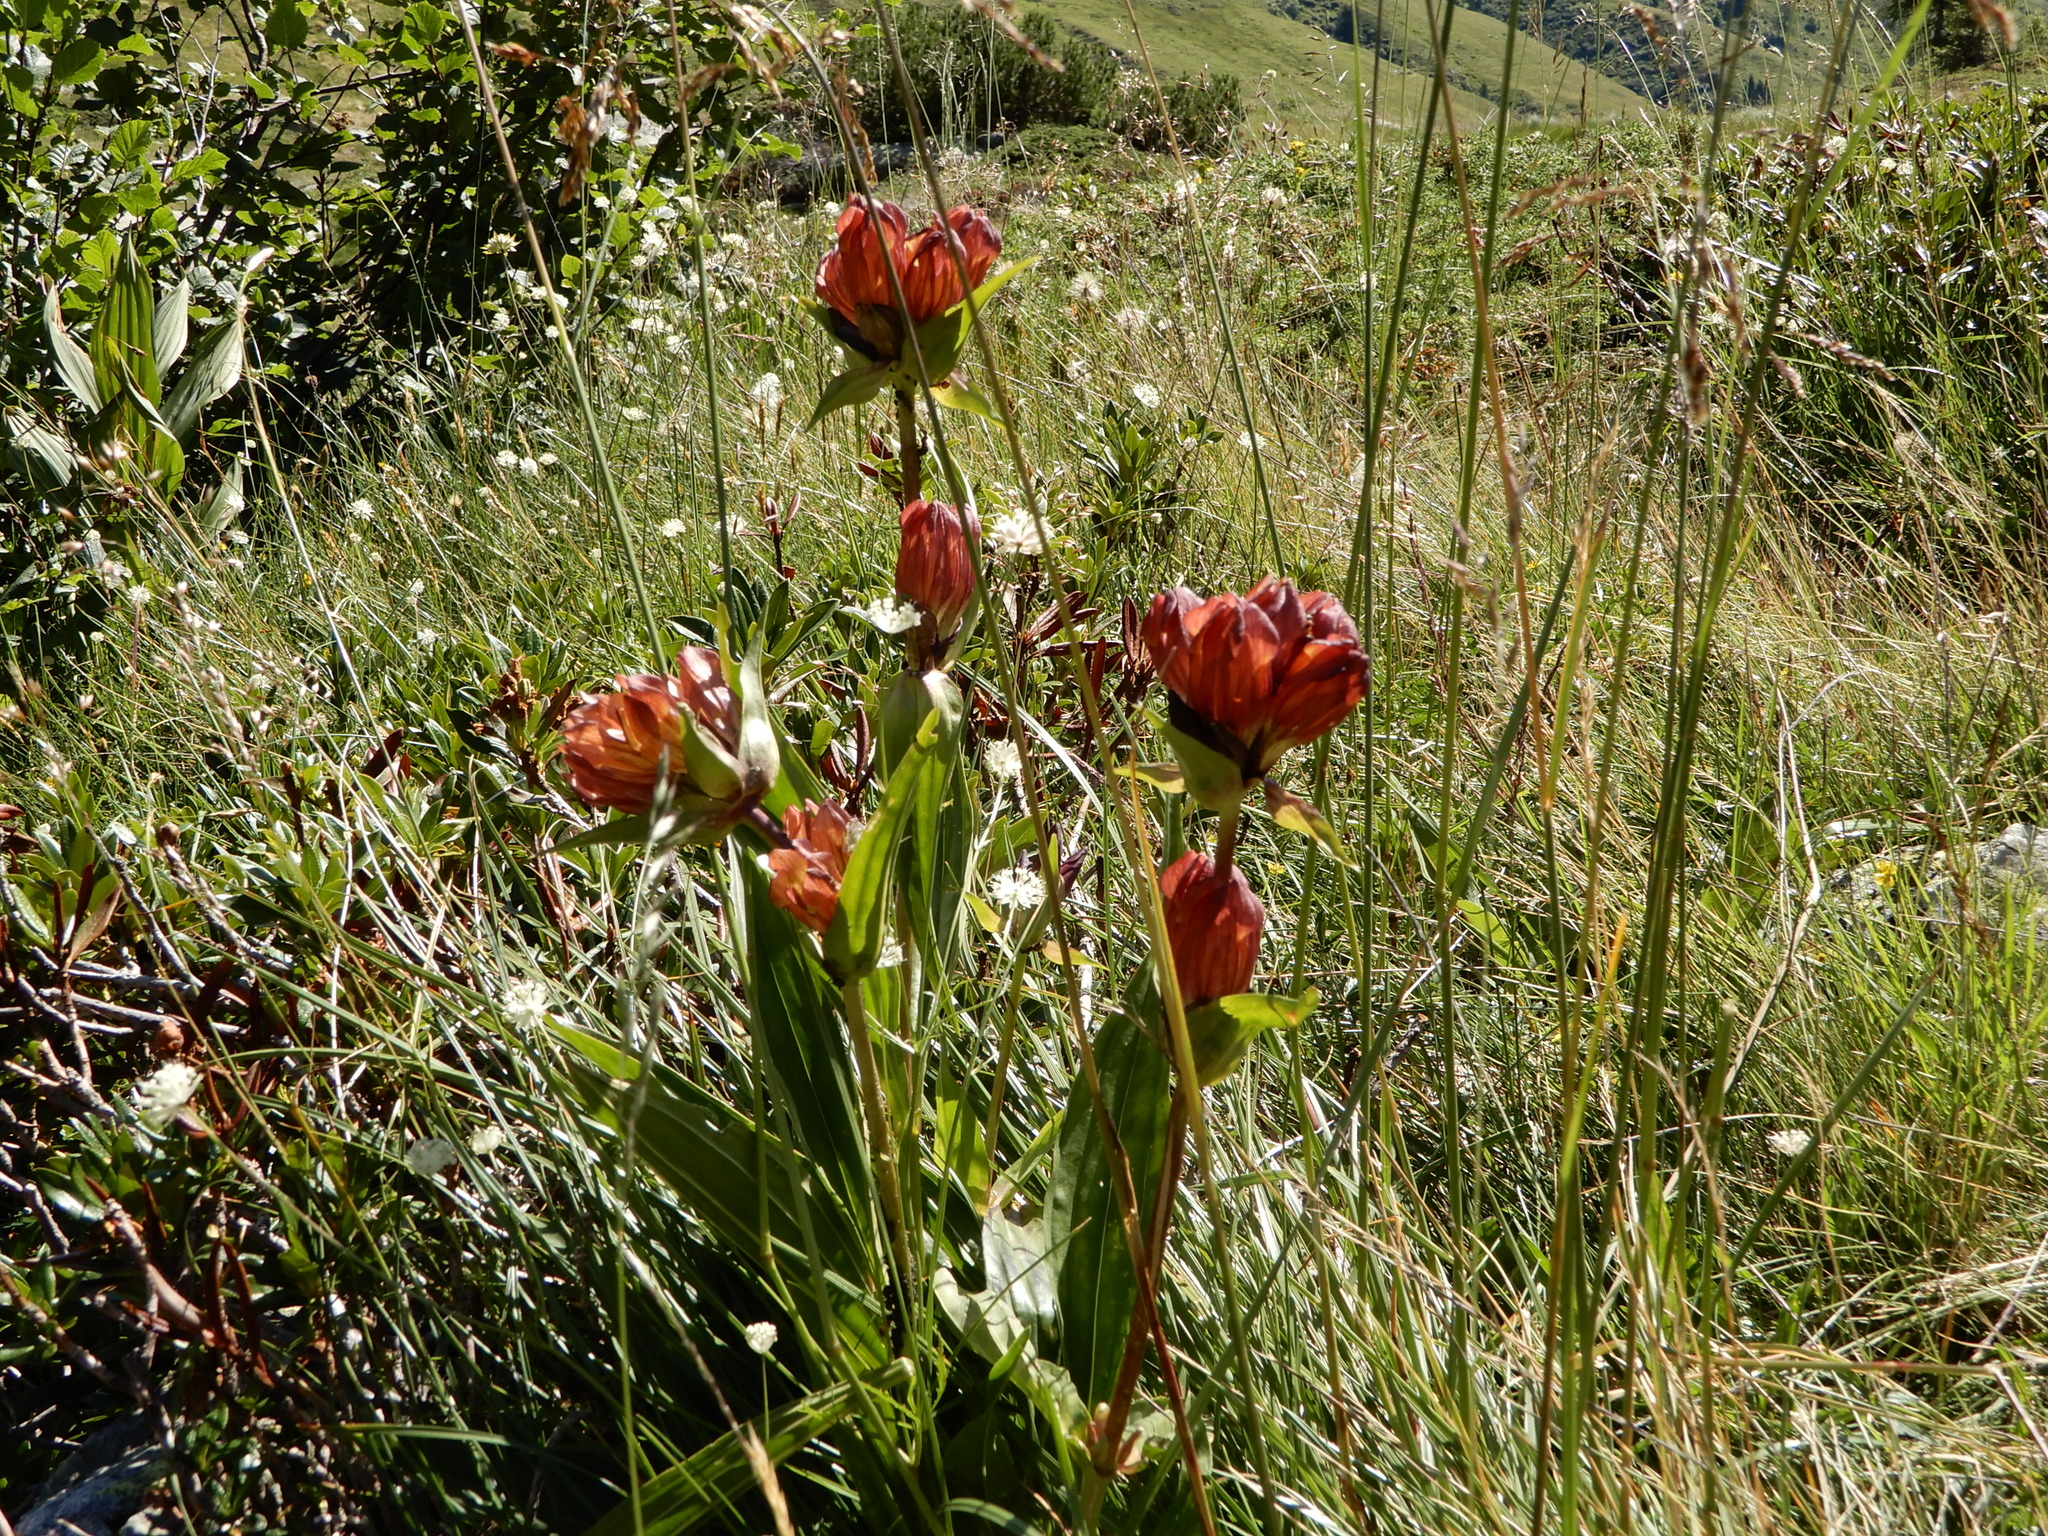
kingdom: Plantae
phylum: Tracheophyta
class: Magnoliopsida
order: Gentianales
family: Gentianaceae
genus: Gentiana
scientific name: Gentiana purpurea
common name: Purple gentian
